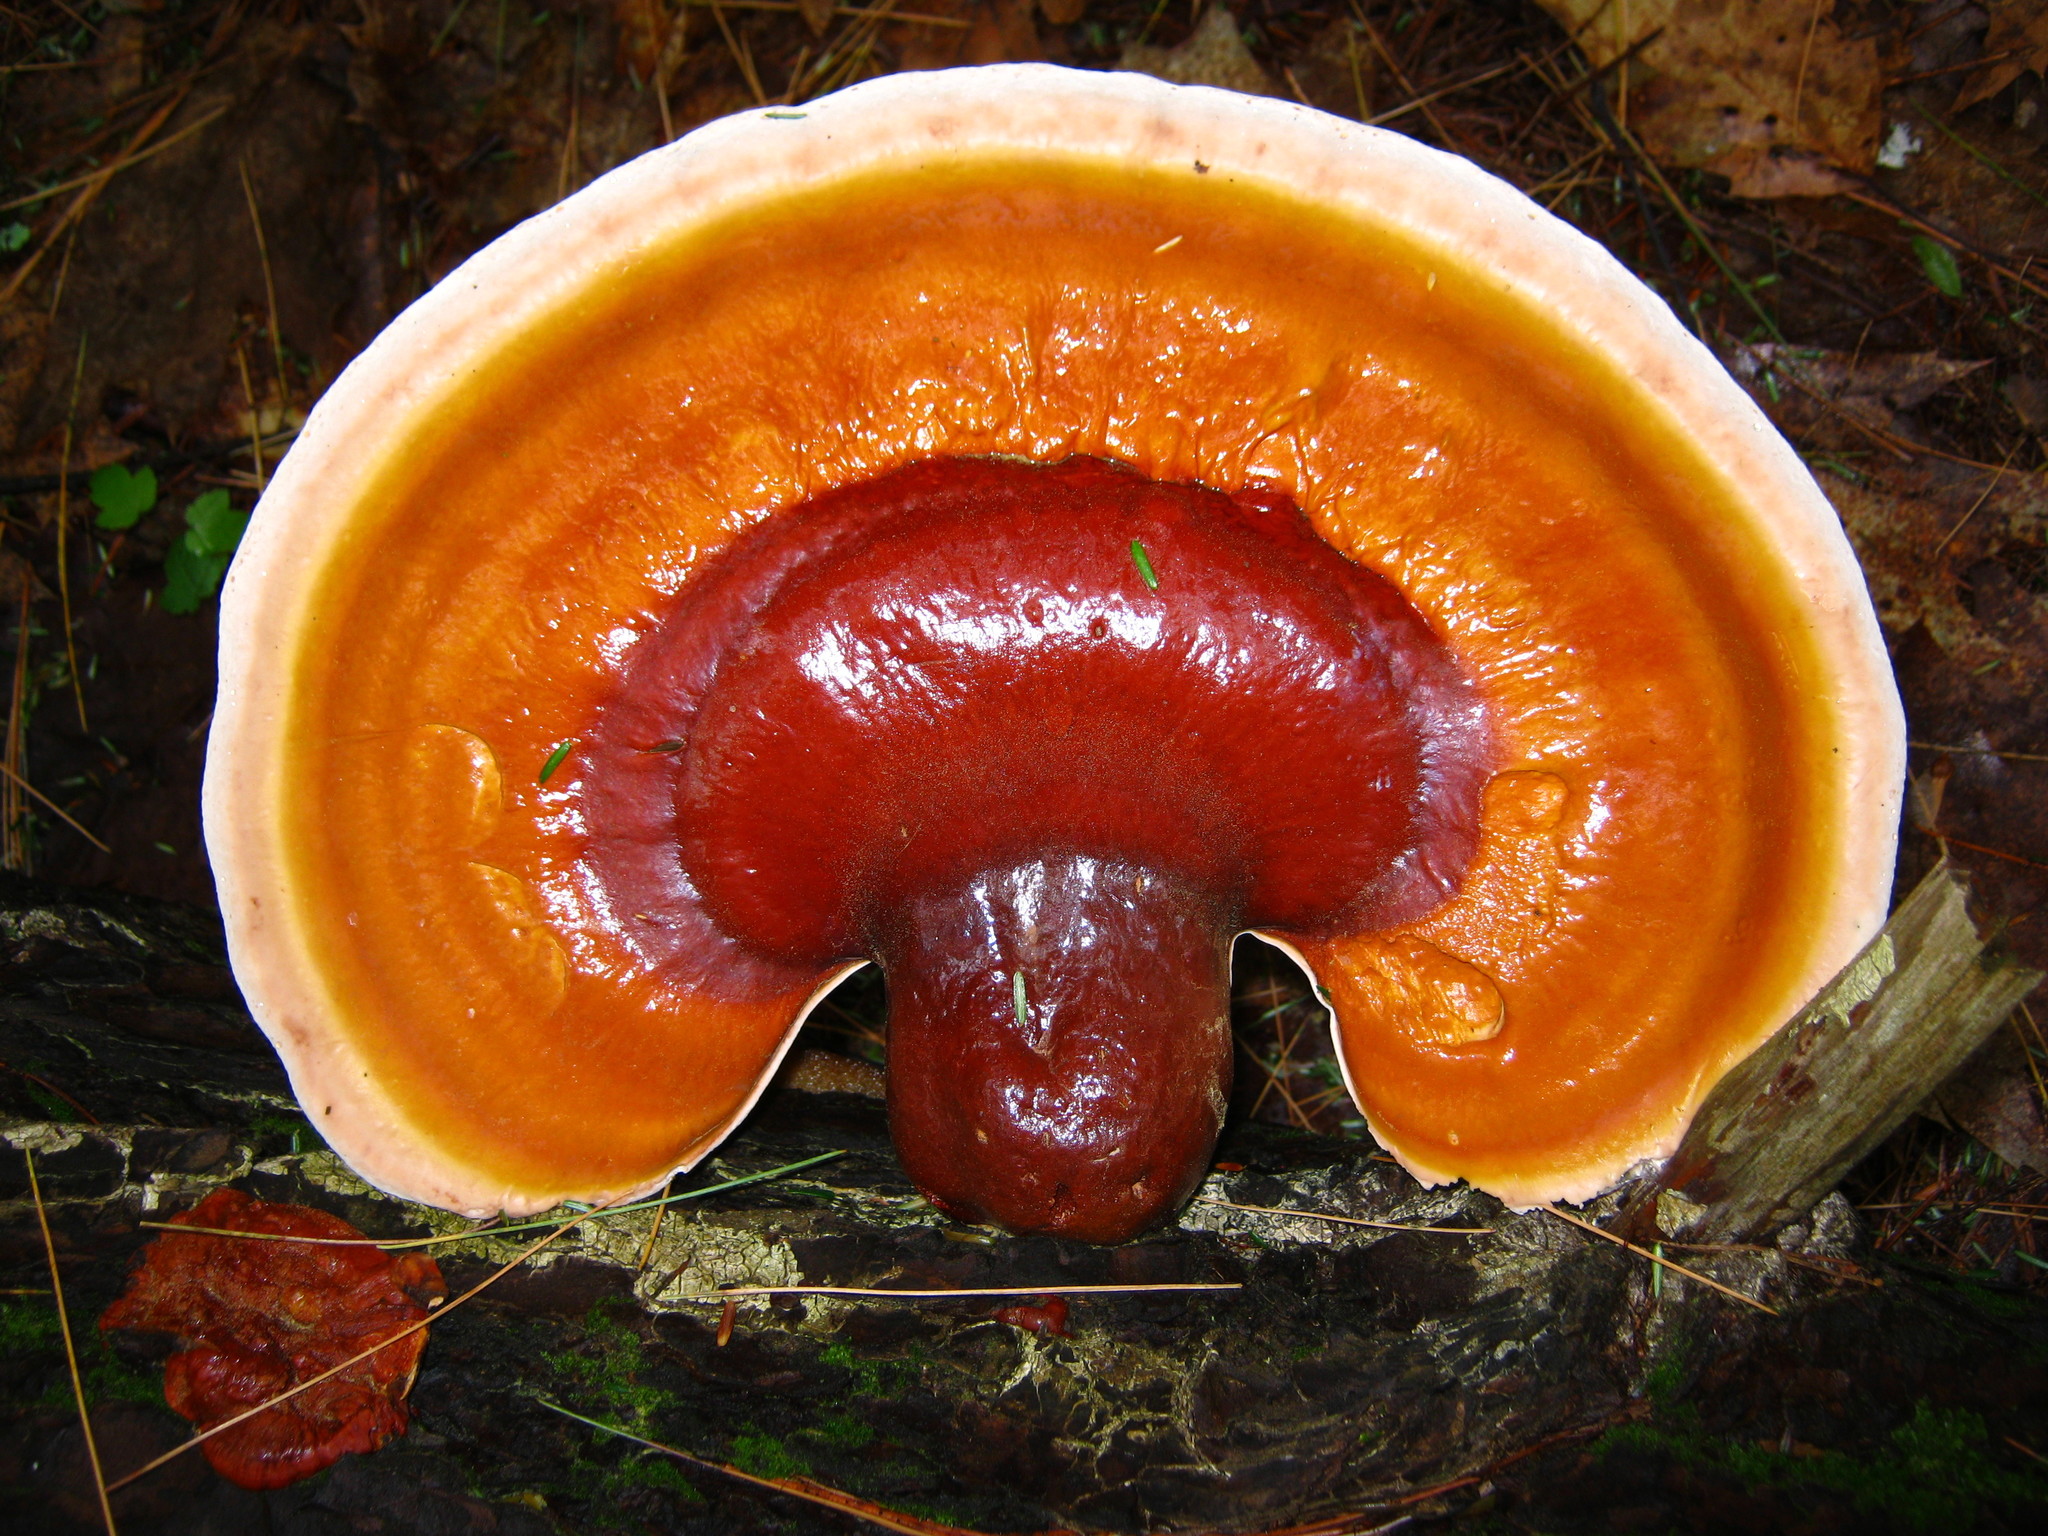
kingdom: Fungi
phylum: Basidiomycota
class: Agaricomycetes
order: Polyporales
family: Polyporaceae
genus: Ganoderma
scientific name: Ganoderma tsugae
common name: Hemlock varnish shelf
